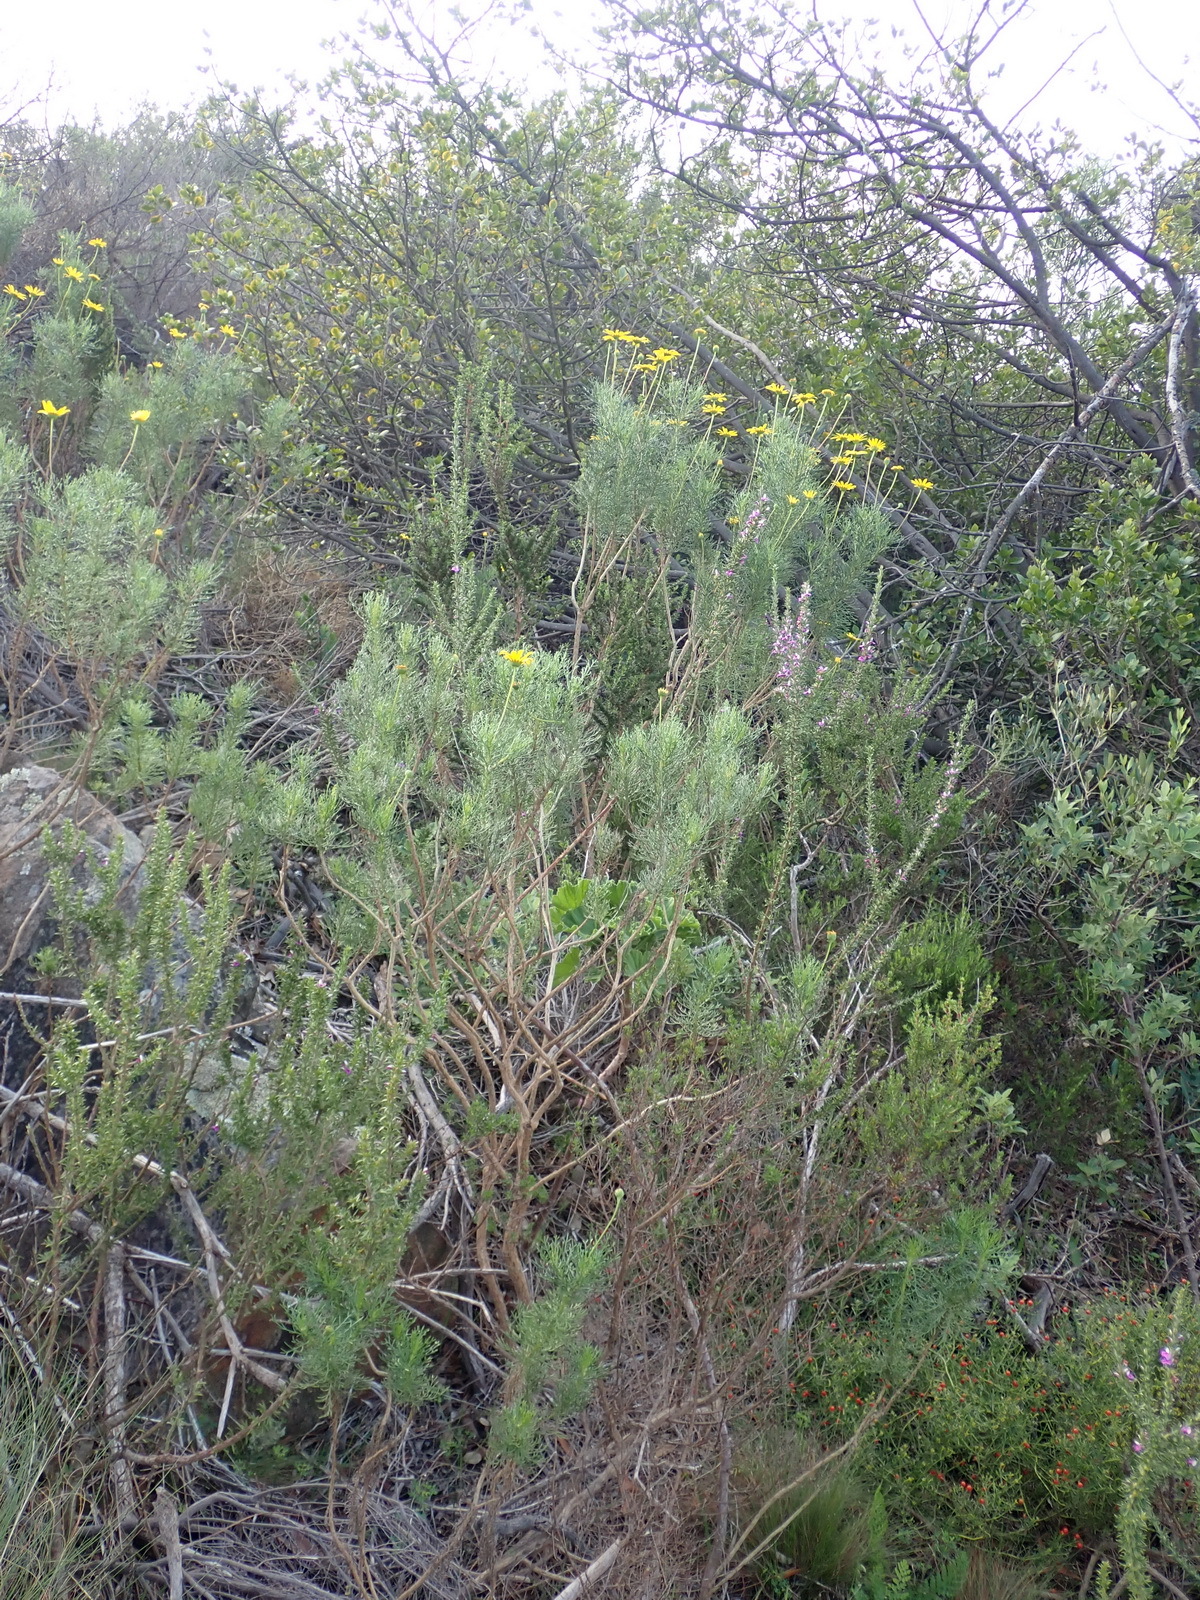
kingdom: Plantae
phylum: Tracheophyta
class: Magnoliopsida
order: Asterales
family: Asteraceae
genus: Euryops
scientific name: Euryops abrotanifolius
